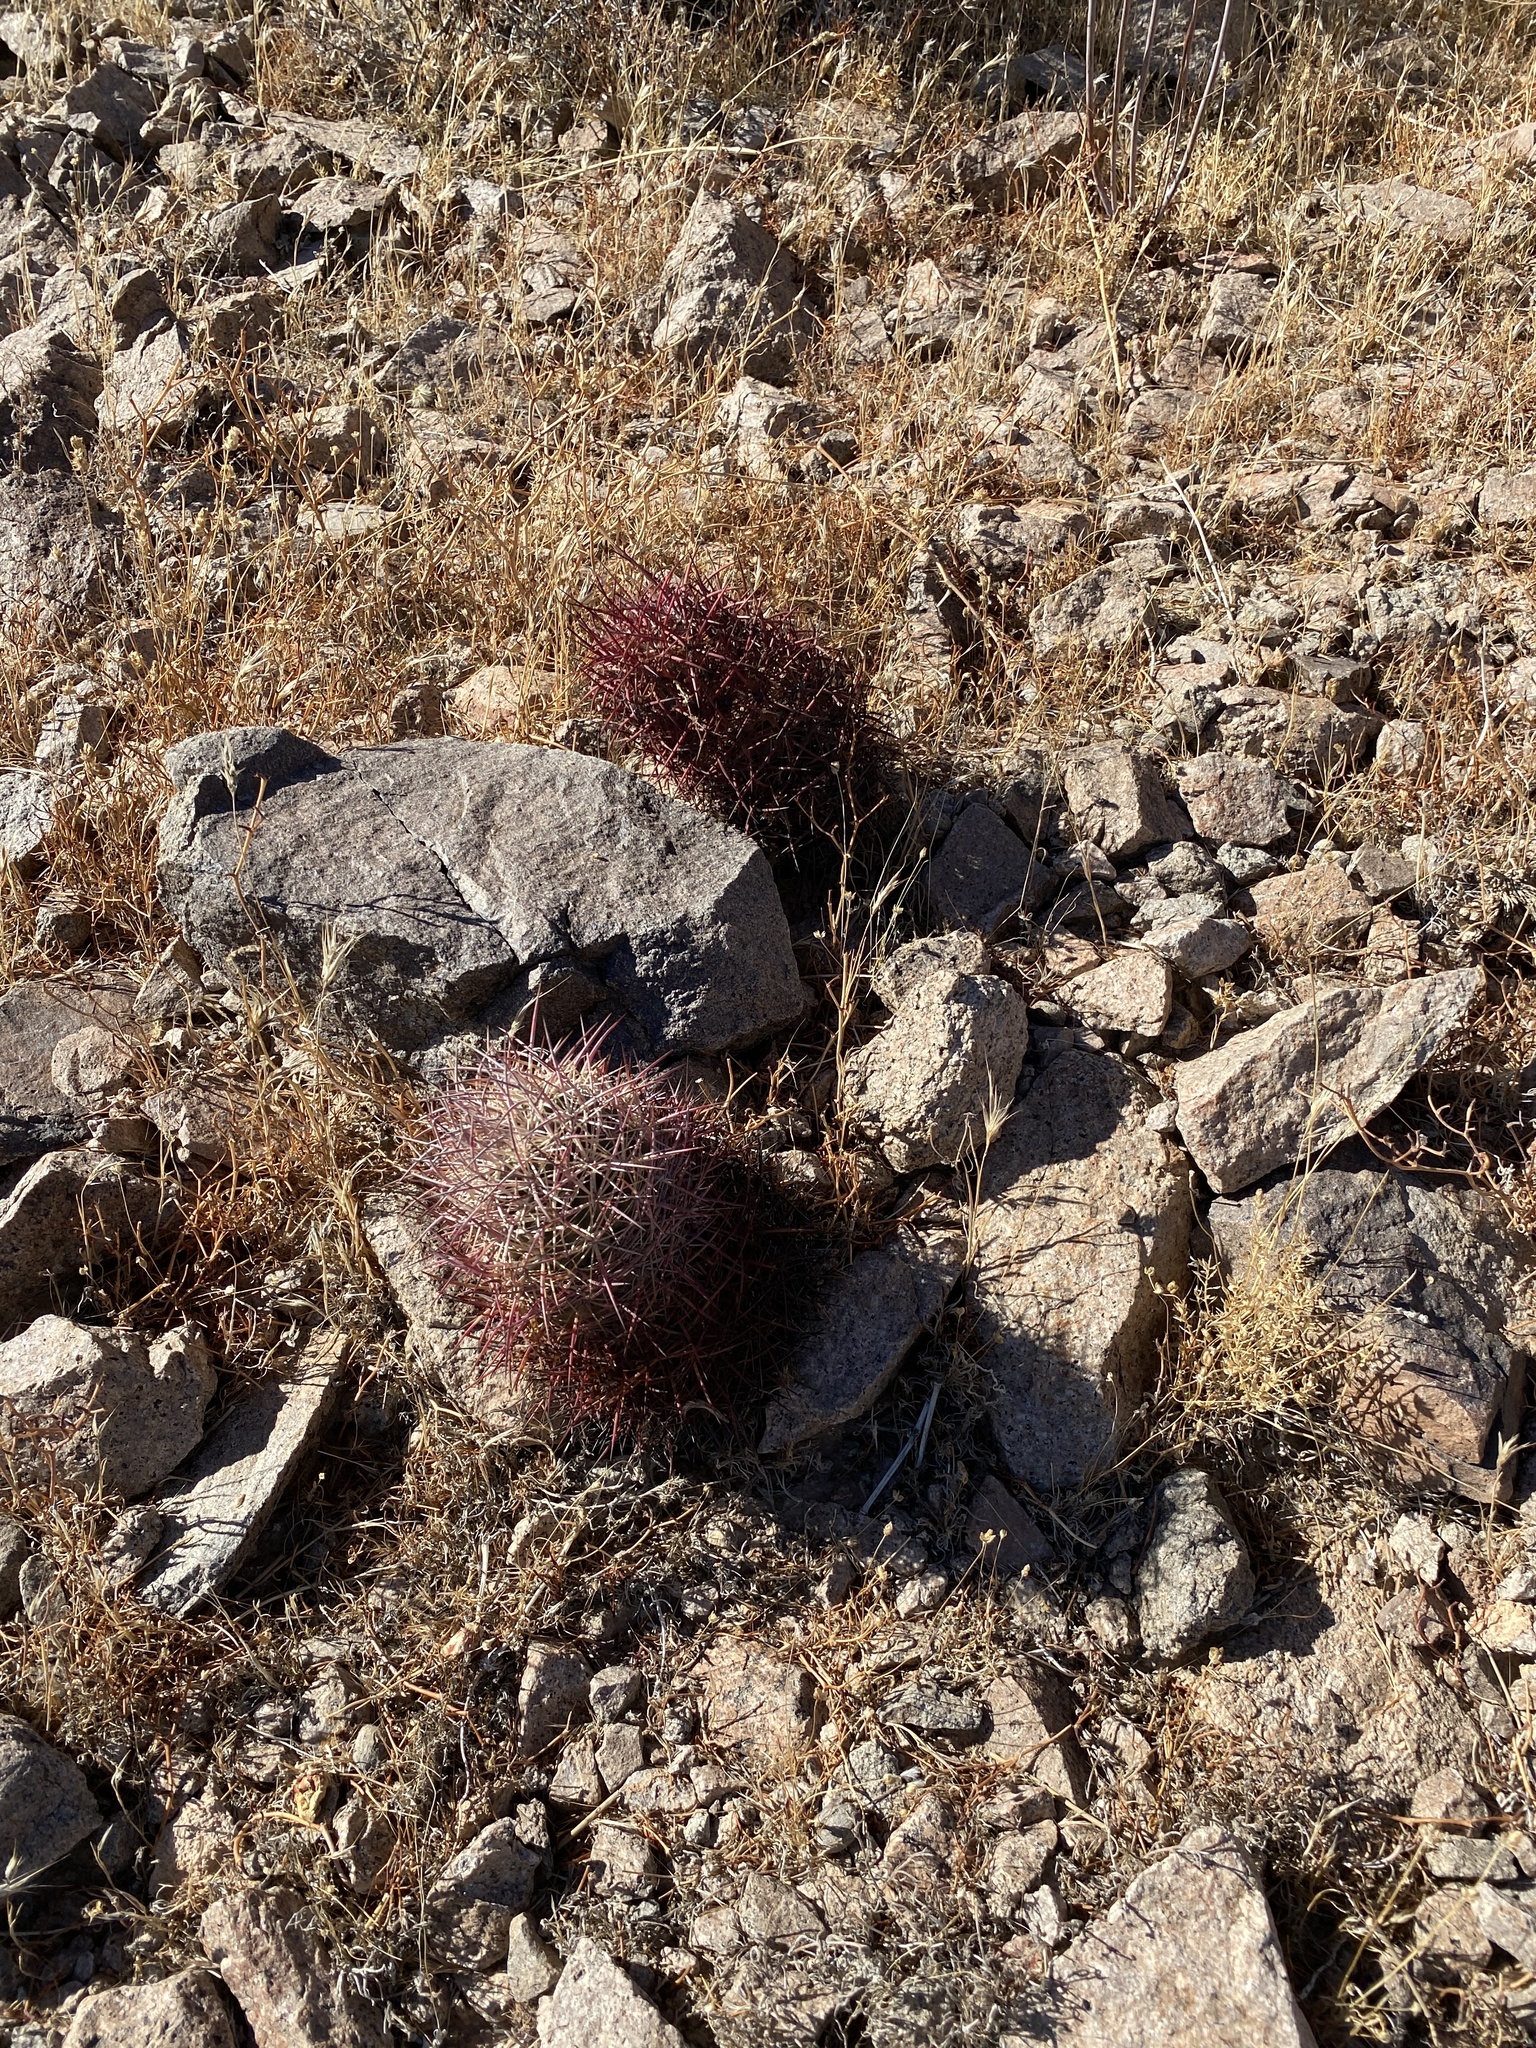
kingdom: Plantae
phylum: Tracheophyta
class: Magnoliopsida
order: Caryophyllales
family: Cactaceae
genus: Sclerocactus
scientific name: Sclerocactus johnsonii
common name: Eight-spine fishhook cactus
